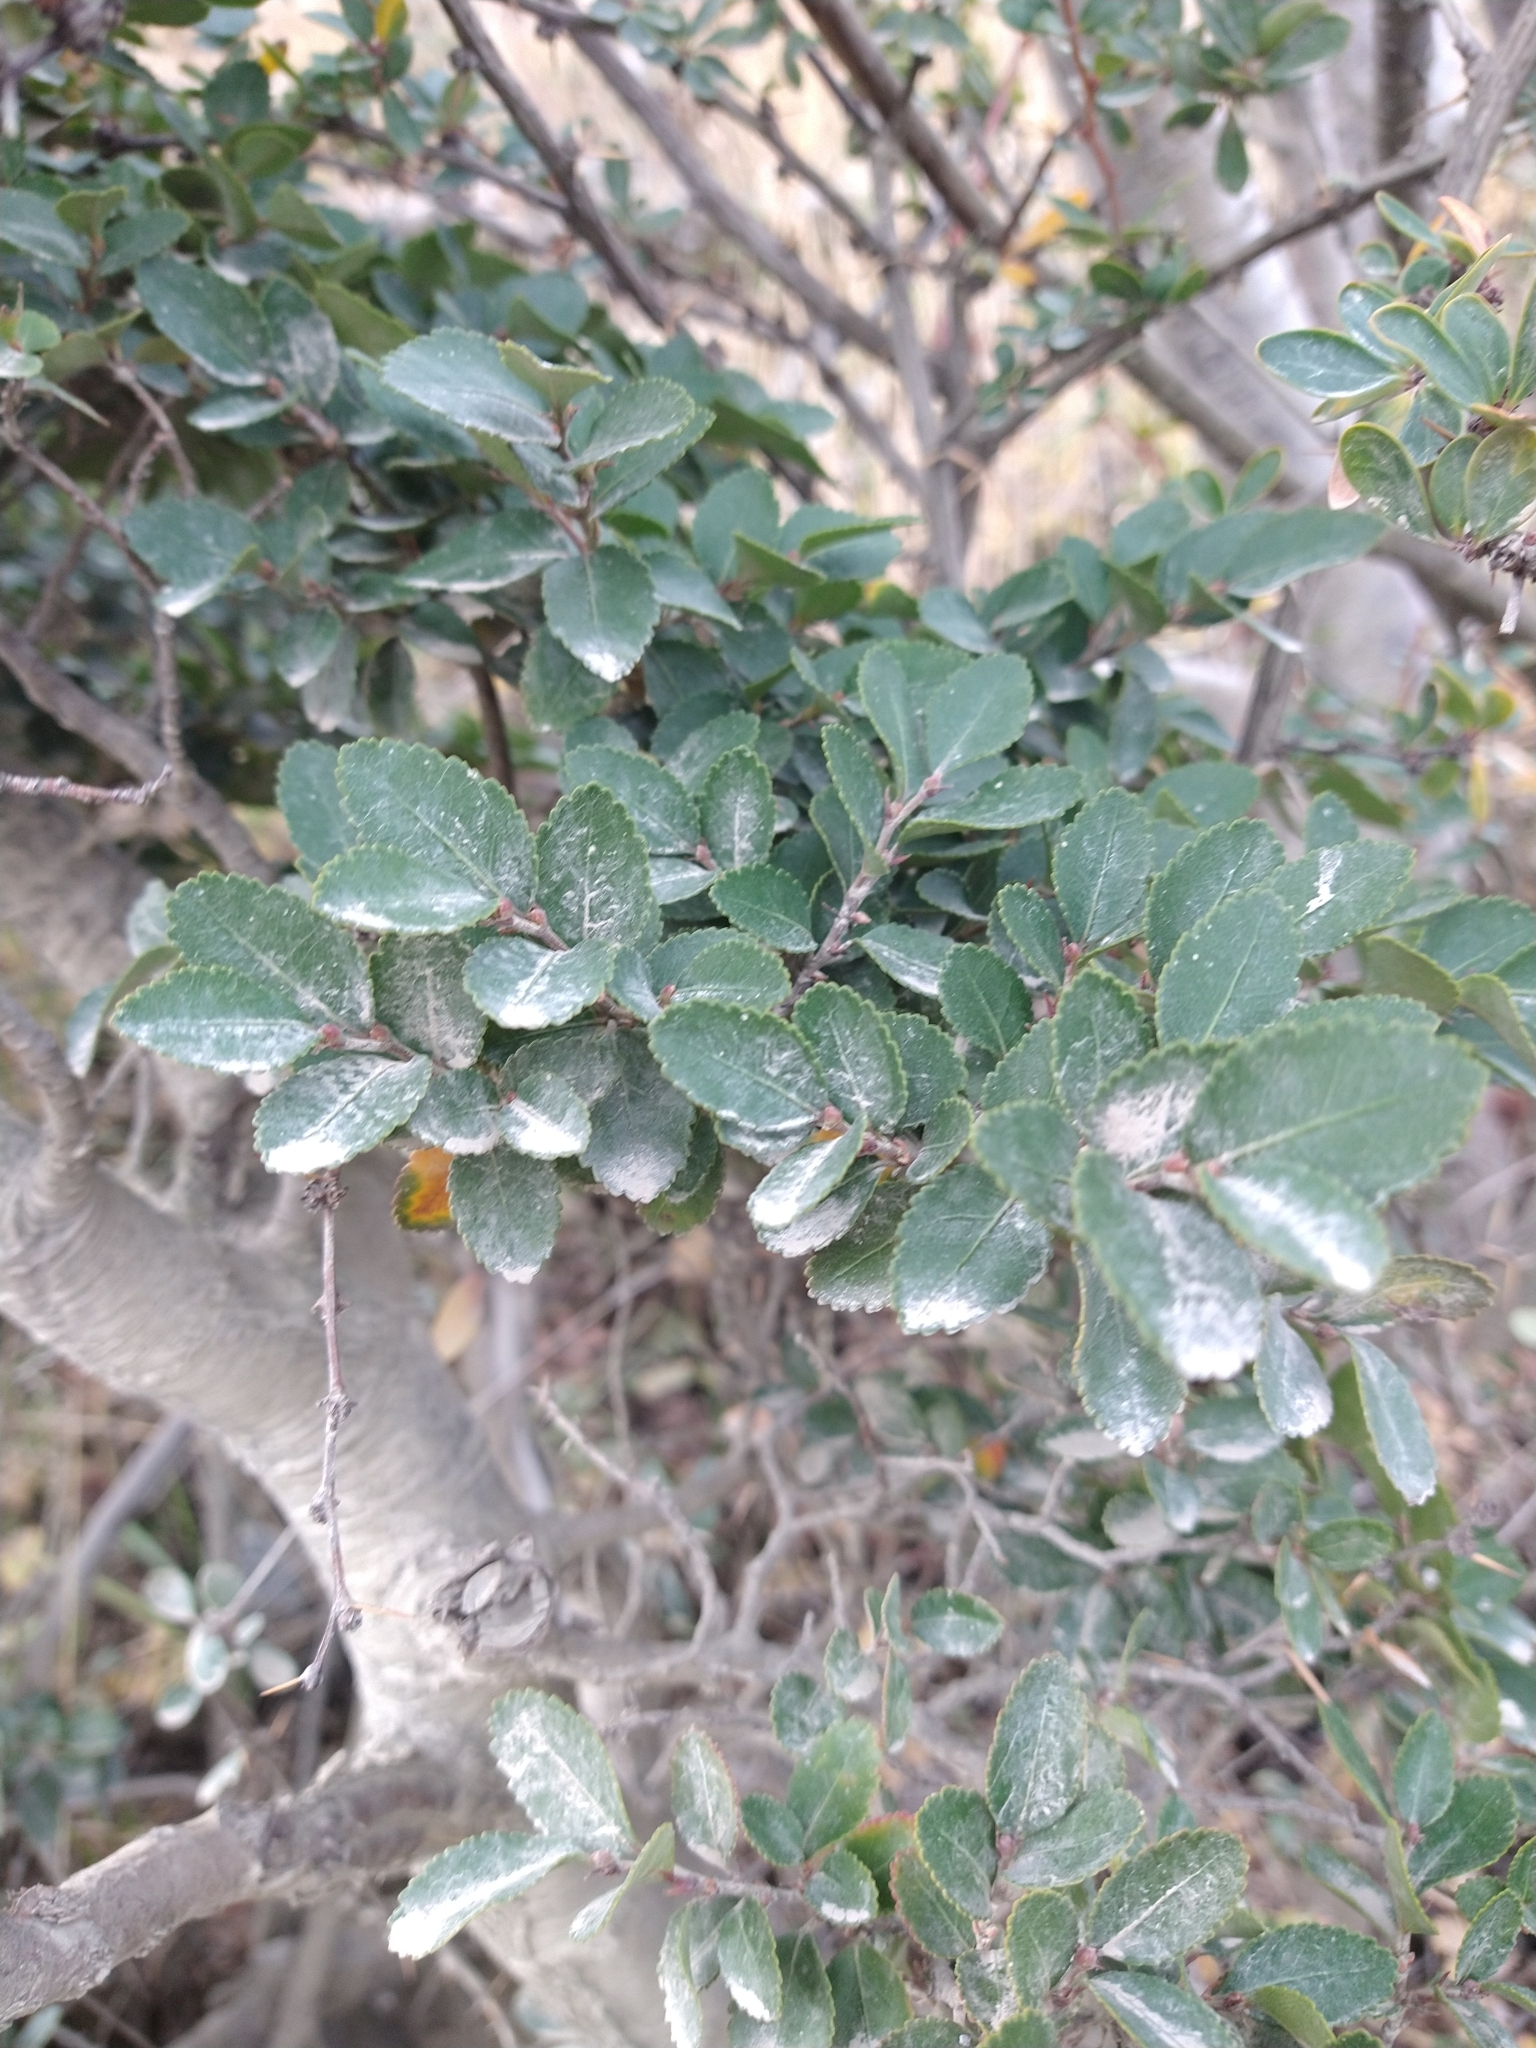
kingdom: Plantae
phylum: Tracheophyta
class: Magnoliopsida
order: Fagales
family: Nothofagaceae
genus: Nothofagus
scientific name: Nothofagus betuloides
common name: Magellan's beech
